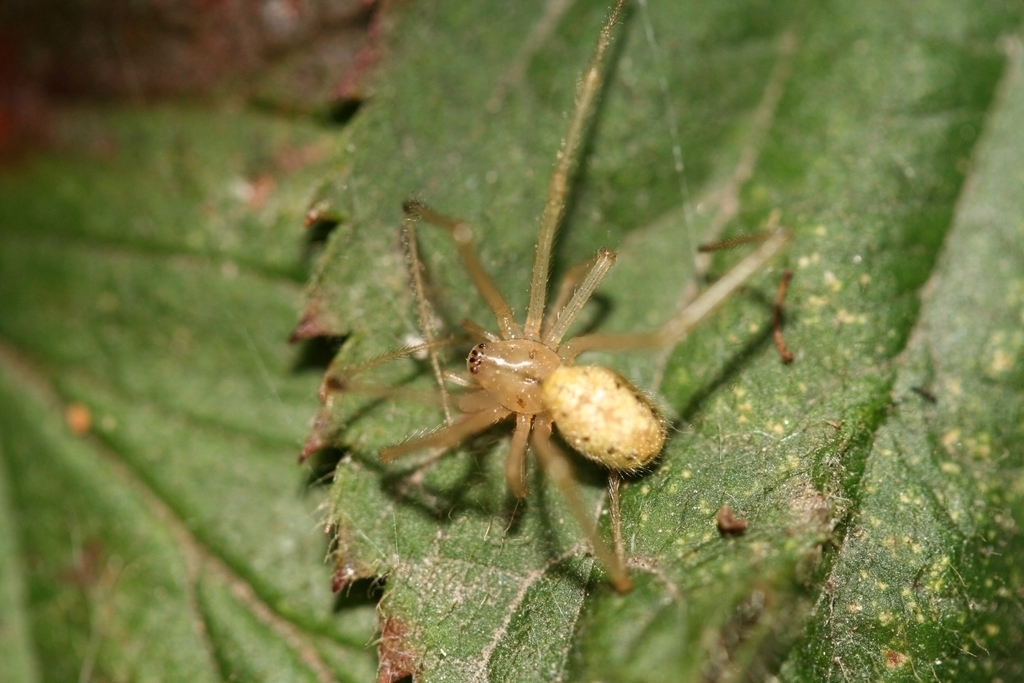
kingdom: Animalia
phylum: Arthropoda
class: Arachnida
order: Araneae
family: Theridiidae
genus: Enoplognatha
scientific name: Enoplognatha
